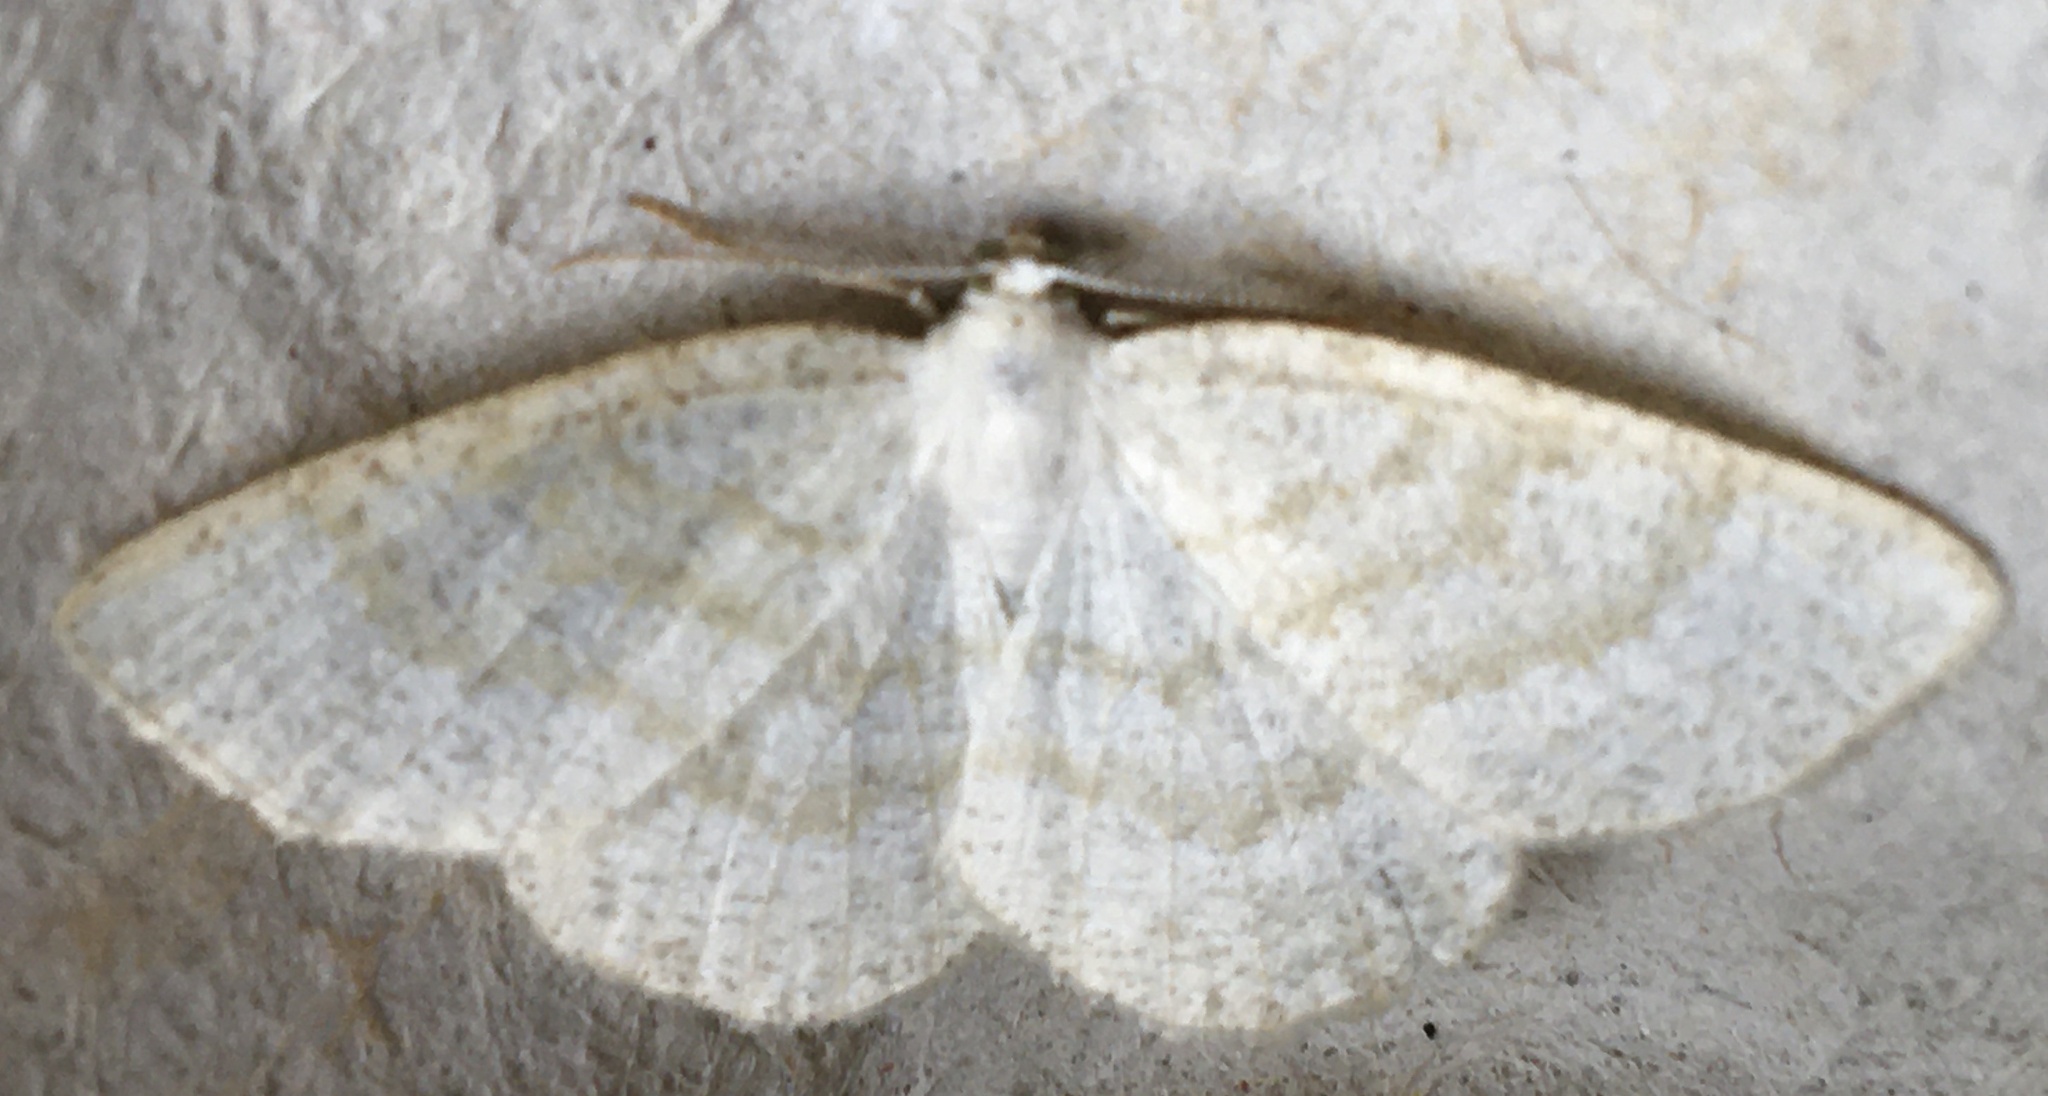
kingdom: Animalia
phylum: Arthropoda
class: Insecta
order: Lepidoptera
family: Geometridae
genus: Cabera
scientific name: Cabera exanthemata
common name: Common wave
